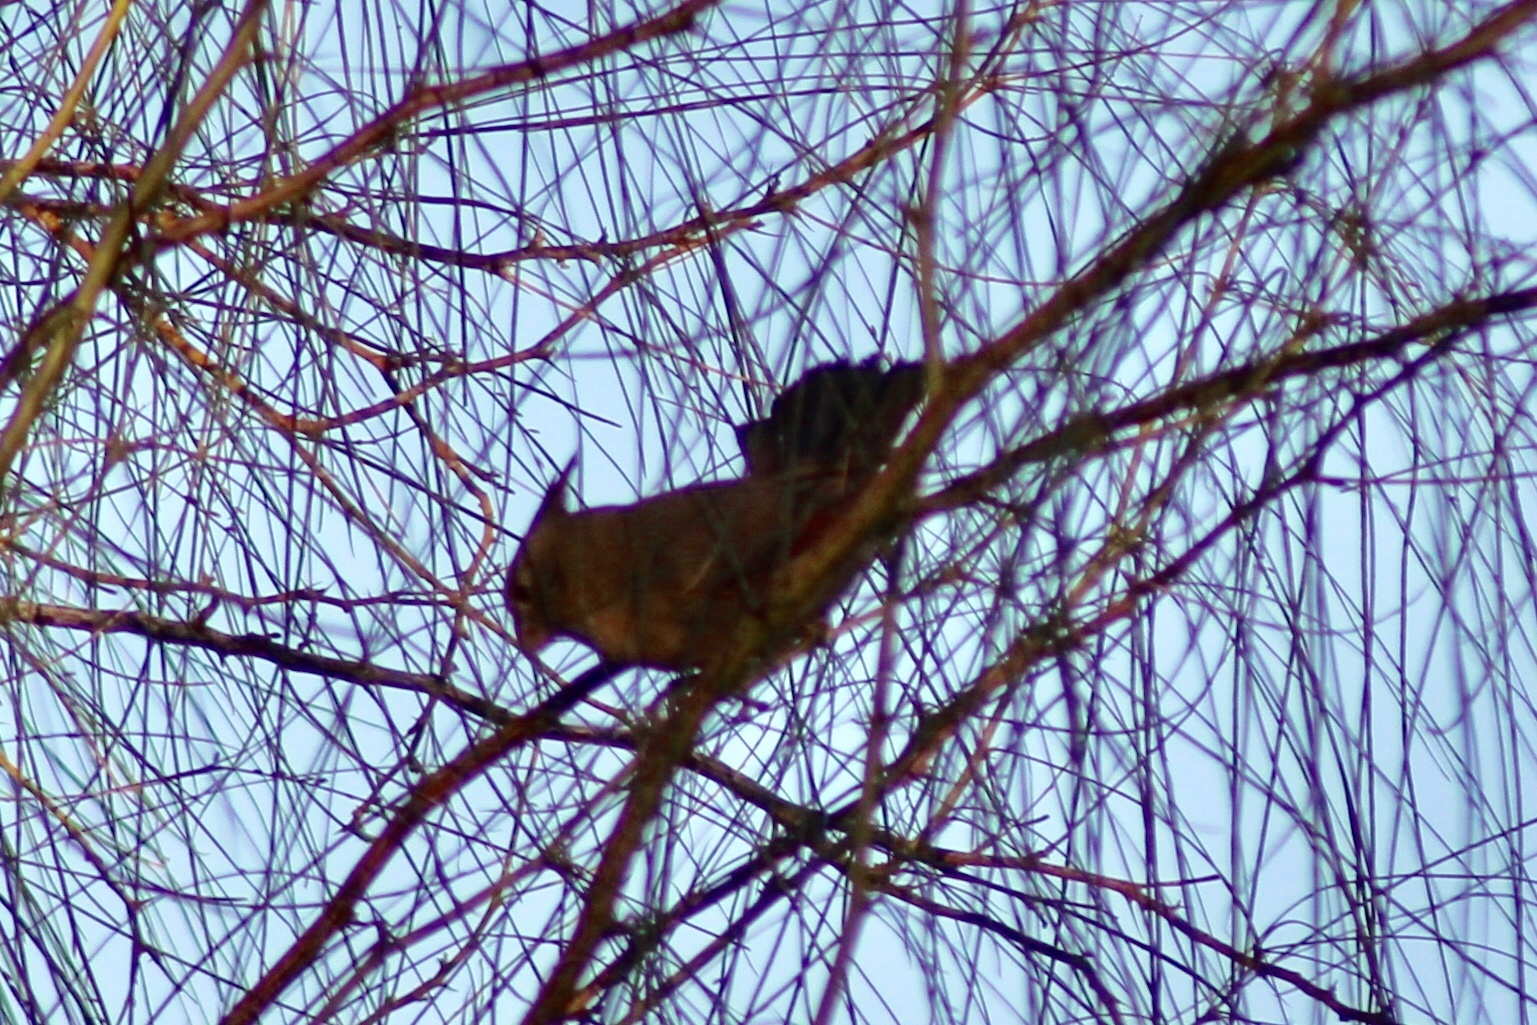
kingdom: Animalia
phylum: Chordata
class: Aves
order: Passeriformes
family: Cardinalidae
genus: Cardinalis
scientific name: Cardinalis sinuatus
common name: Pyrrhuloxia
